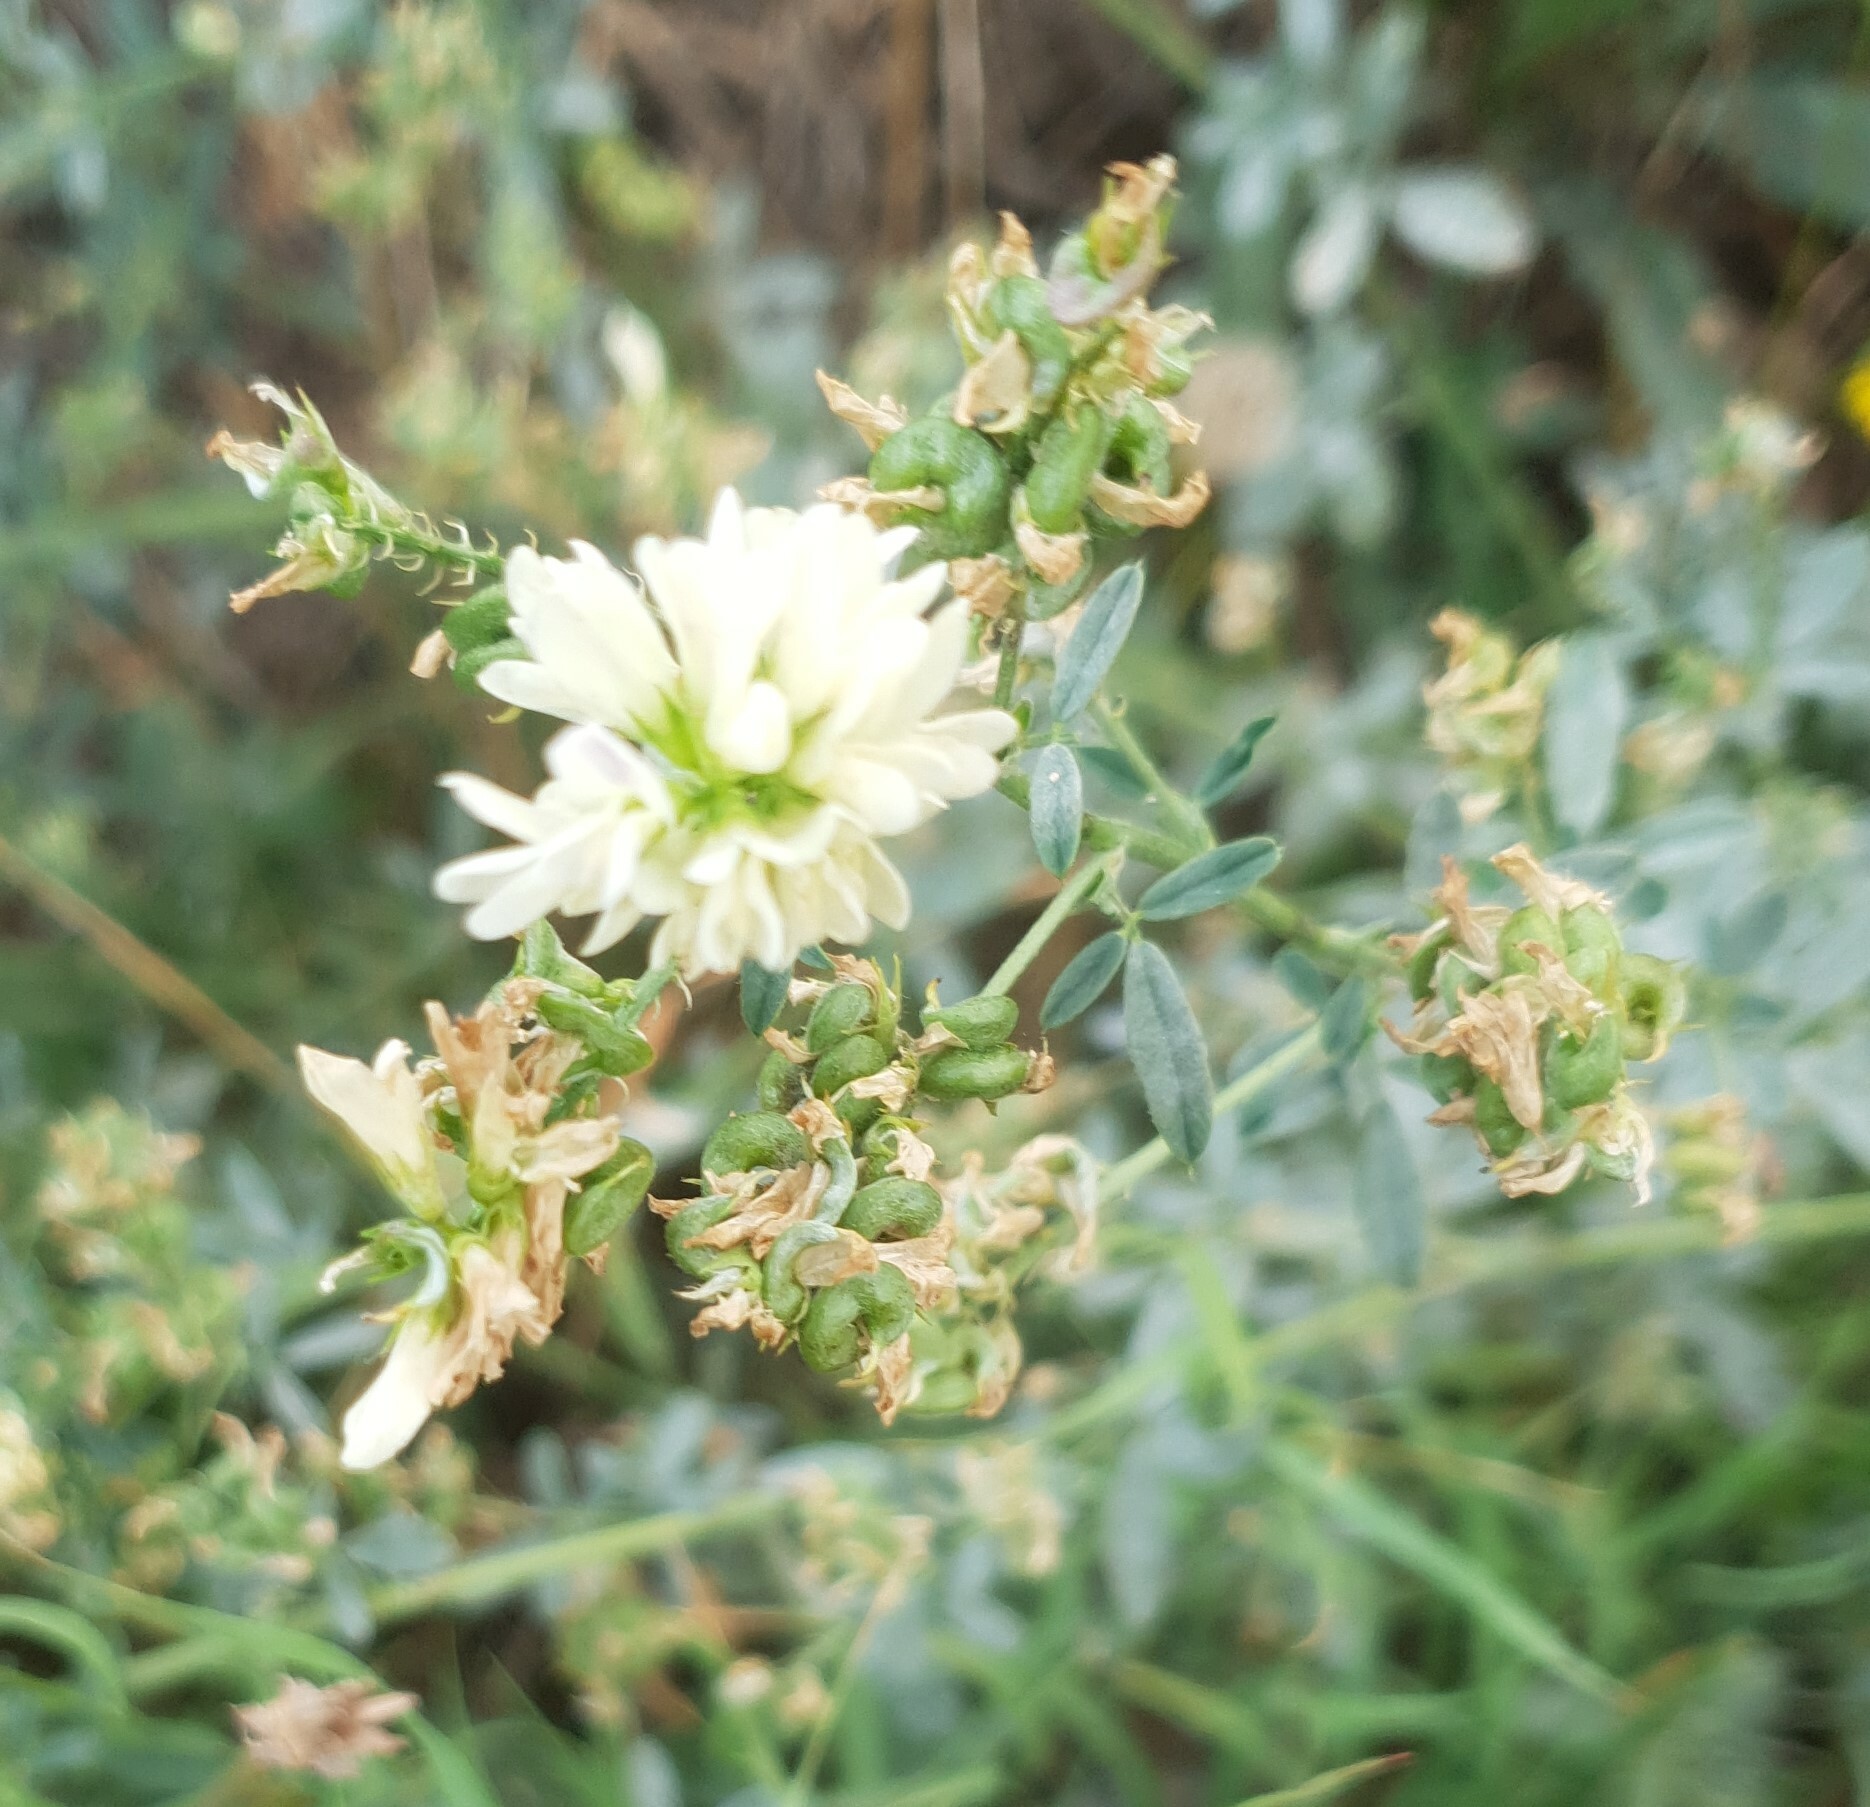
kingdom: Plantae
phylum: Tracheophyta
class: Magnoliopsida
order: Fabales
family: Fabaceae
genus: Medicago
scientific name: Medicago varia
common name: Sand lucerne
